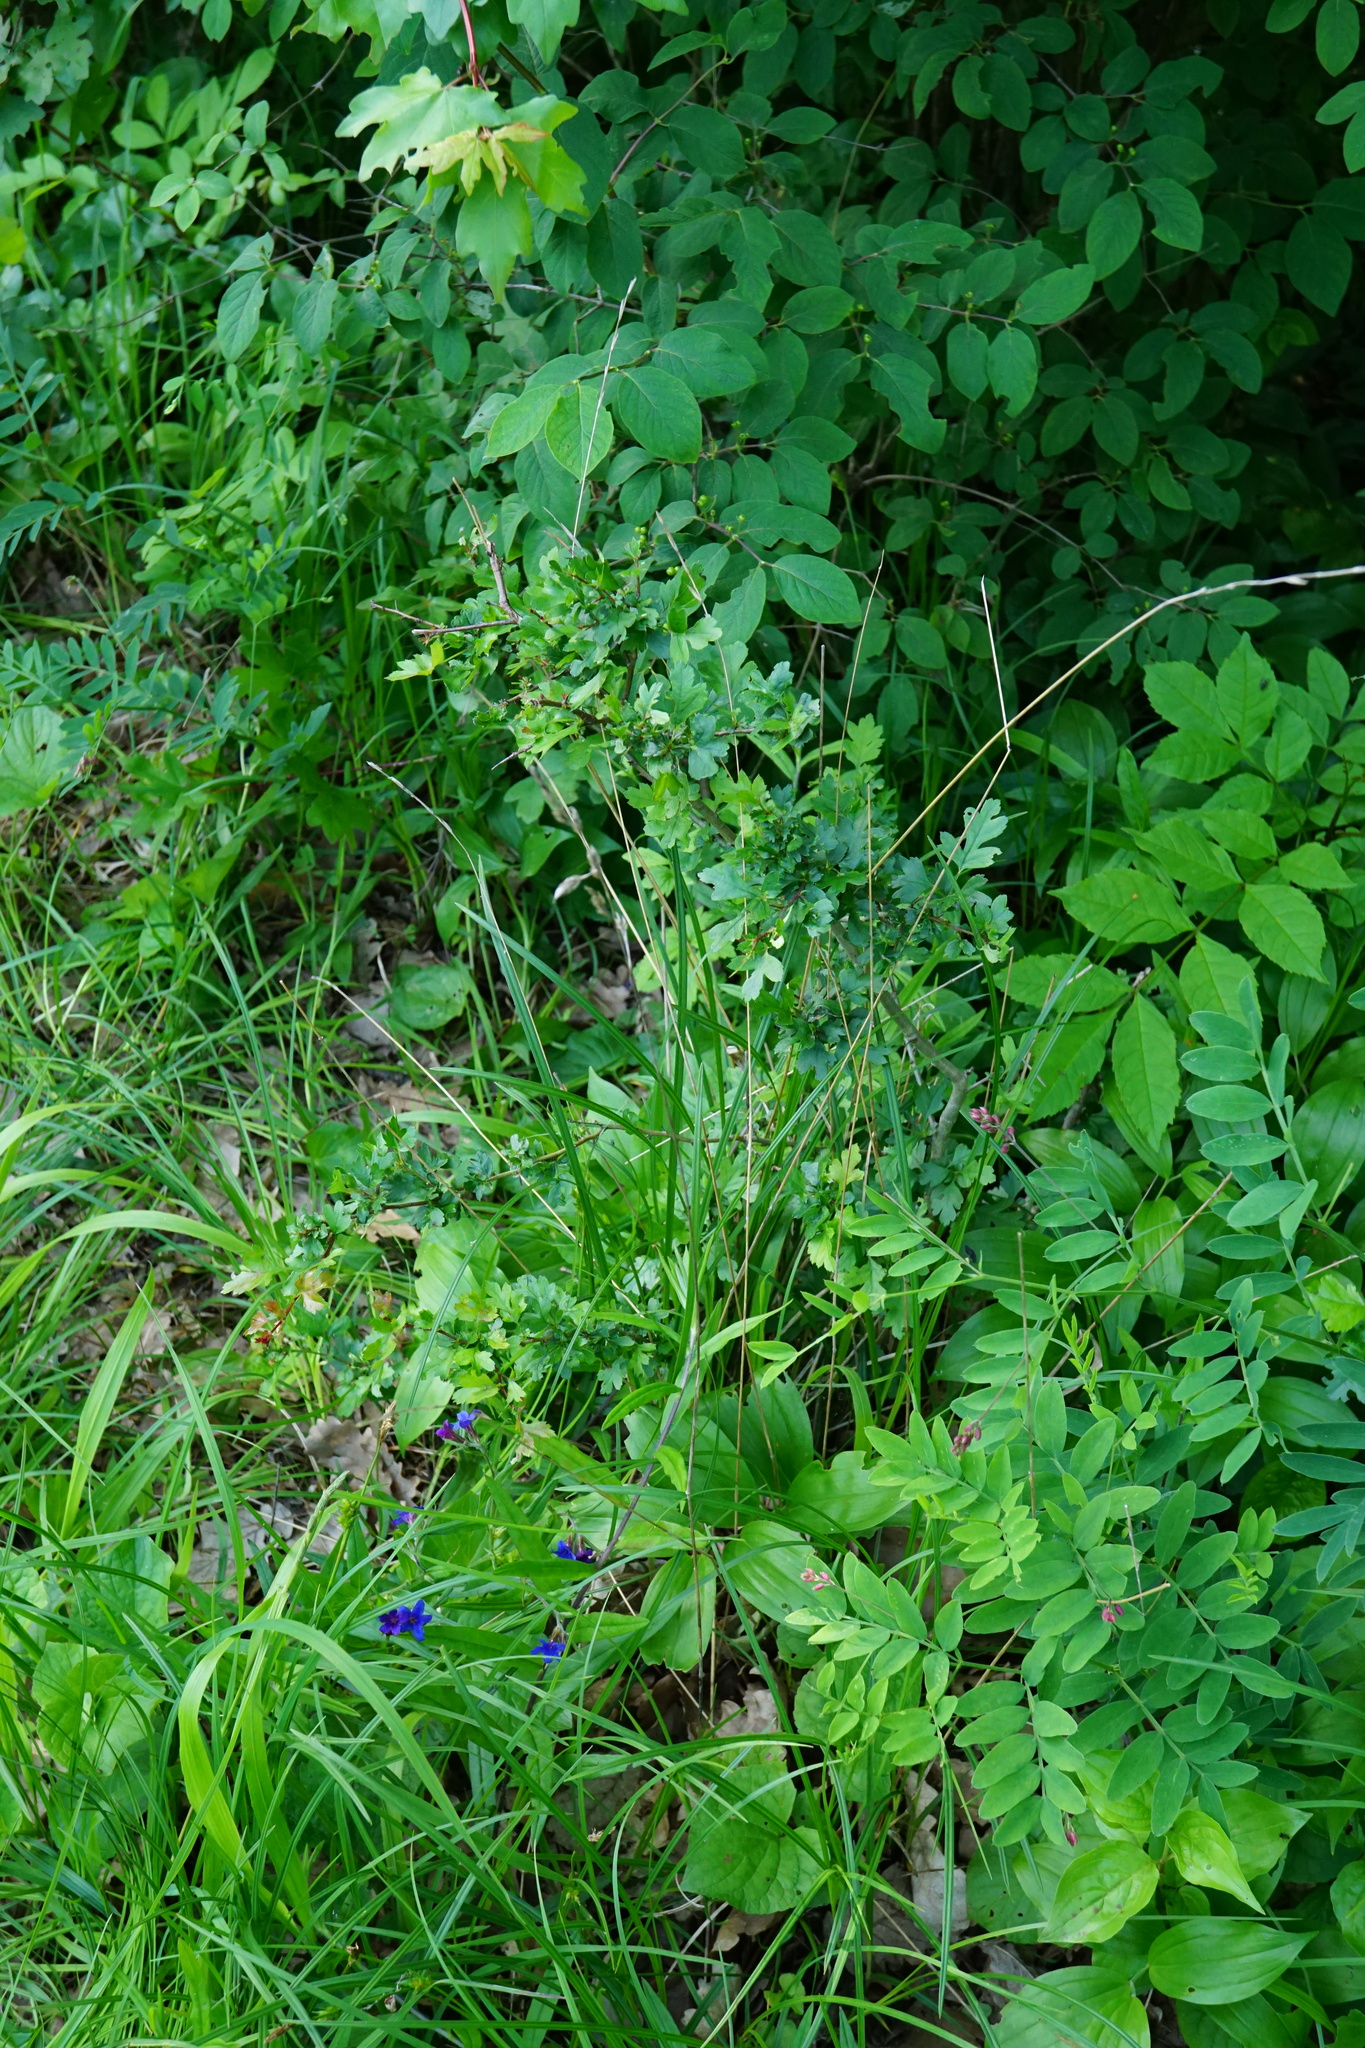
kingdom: Plantae
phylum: Tracheophyta
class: Liliopsida
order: Poales
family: Poaceae
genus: Dactylis
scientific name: Dactylis glomerata
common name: Orchardgrass
